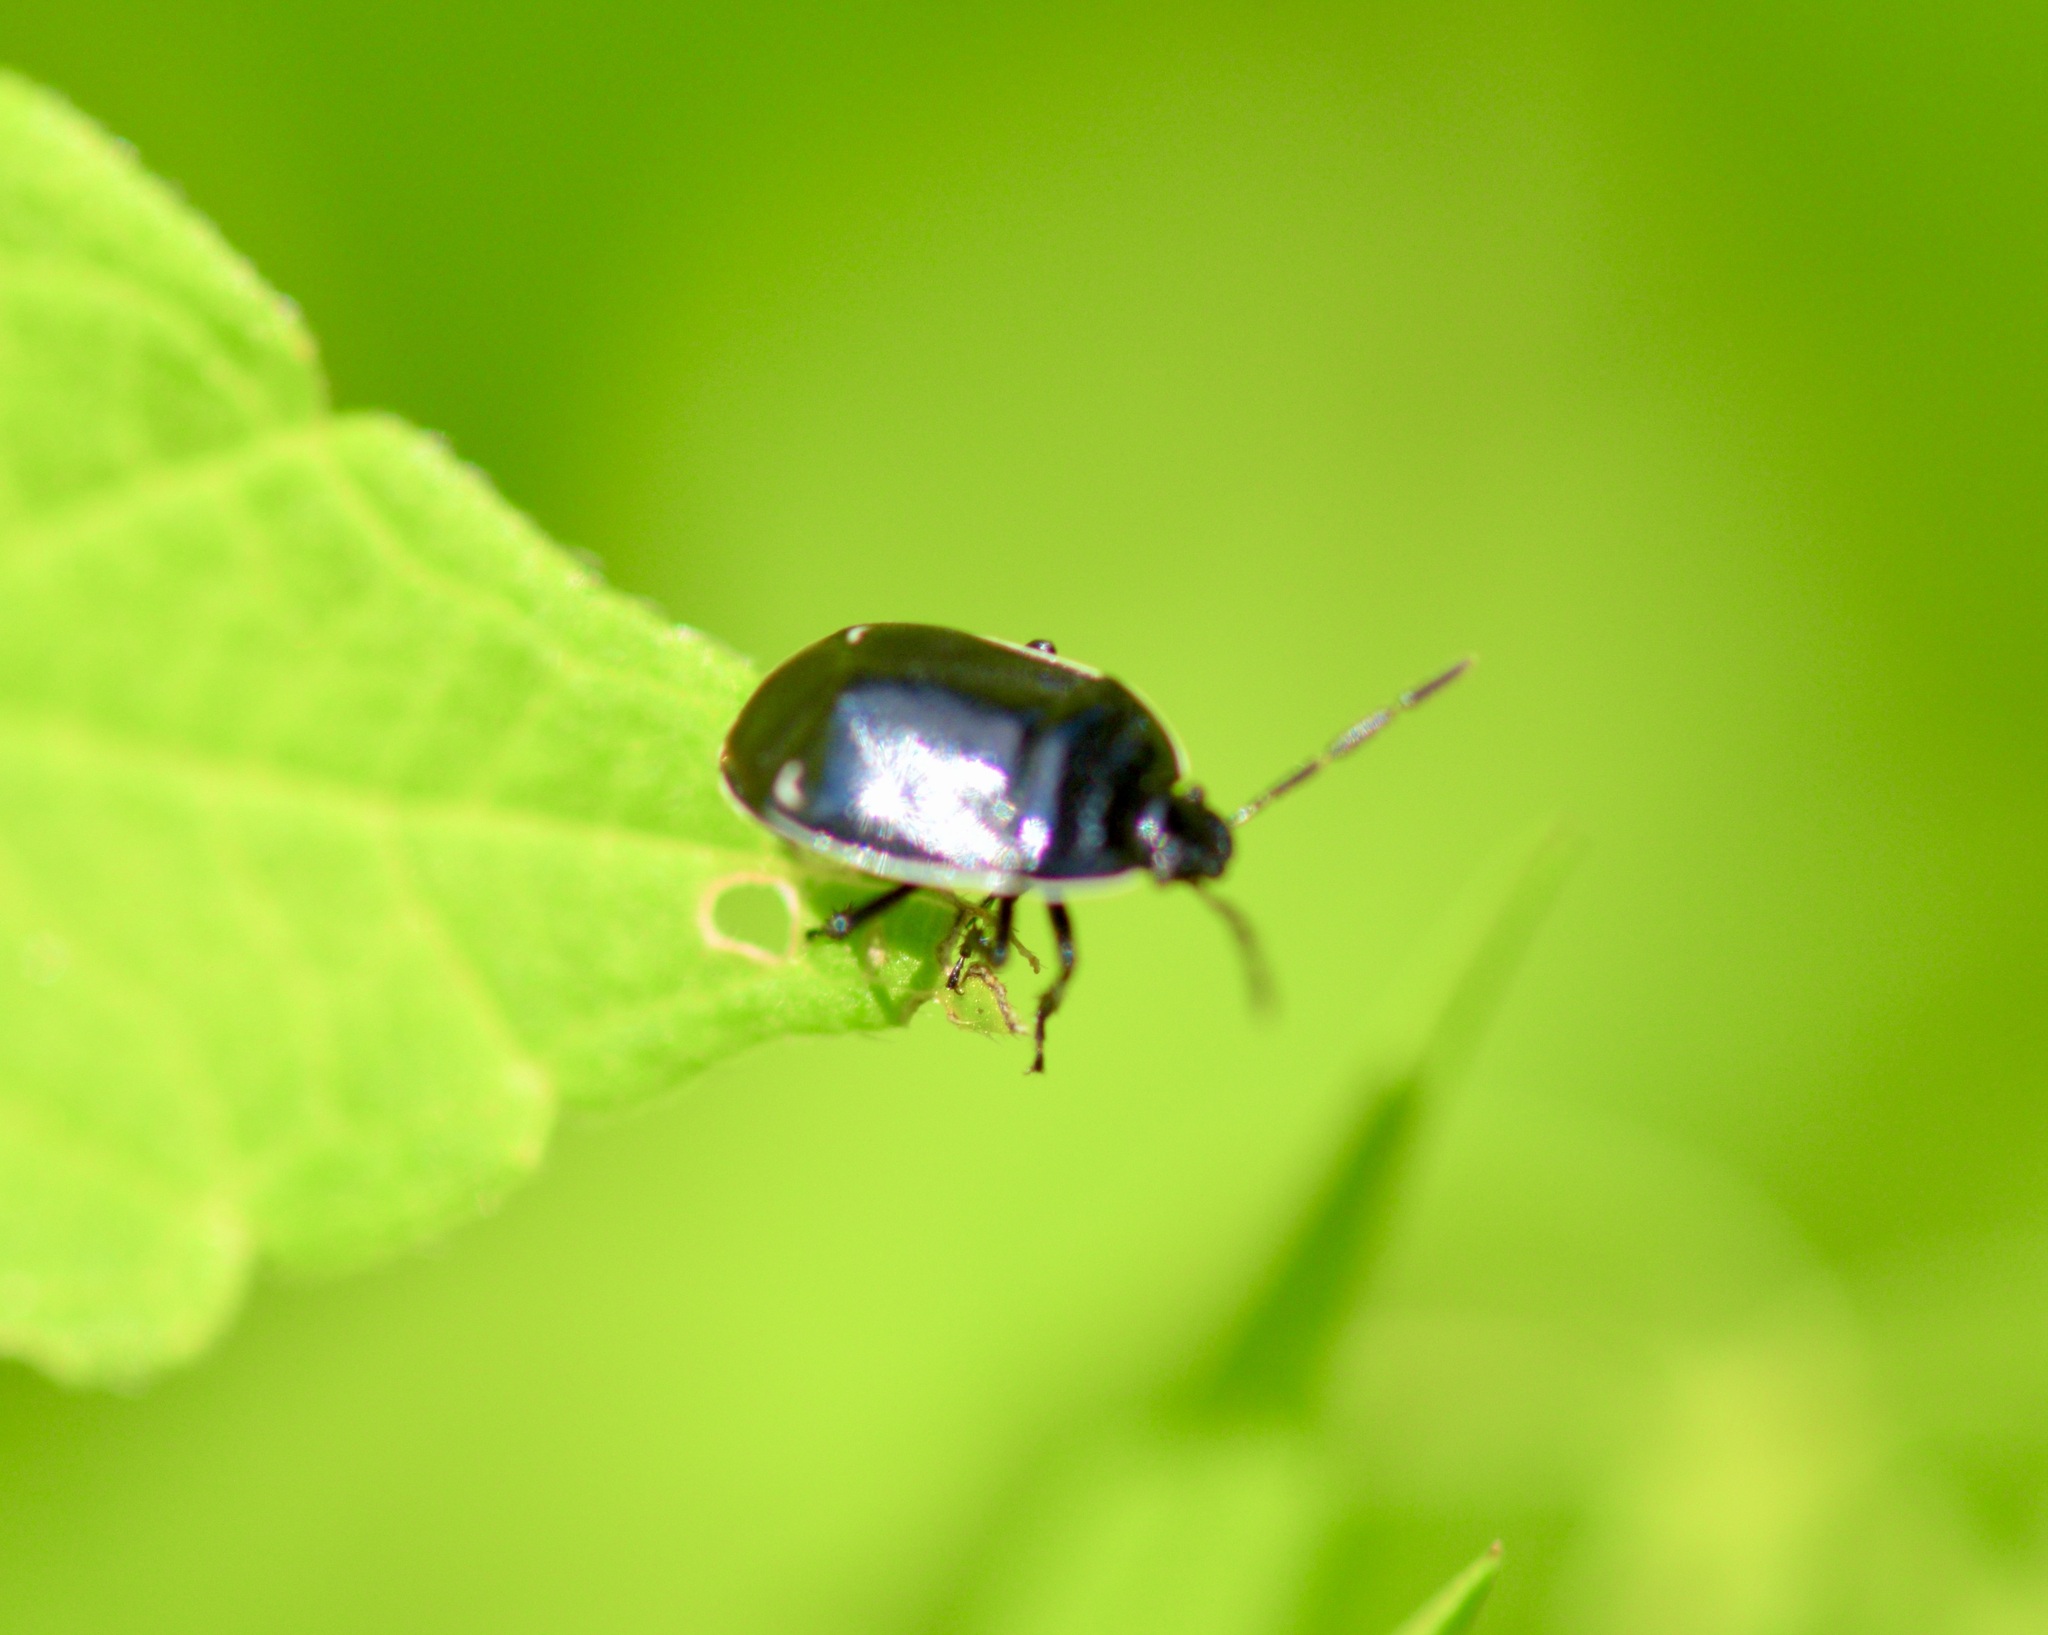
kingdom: Animalia
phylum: Arthropoda
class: Insecta
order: Hemiptera
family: Cydnidae
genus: Sehirus
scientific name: Sehirus cinctus
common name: White-margined burrower bug
